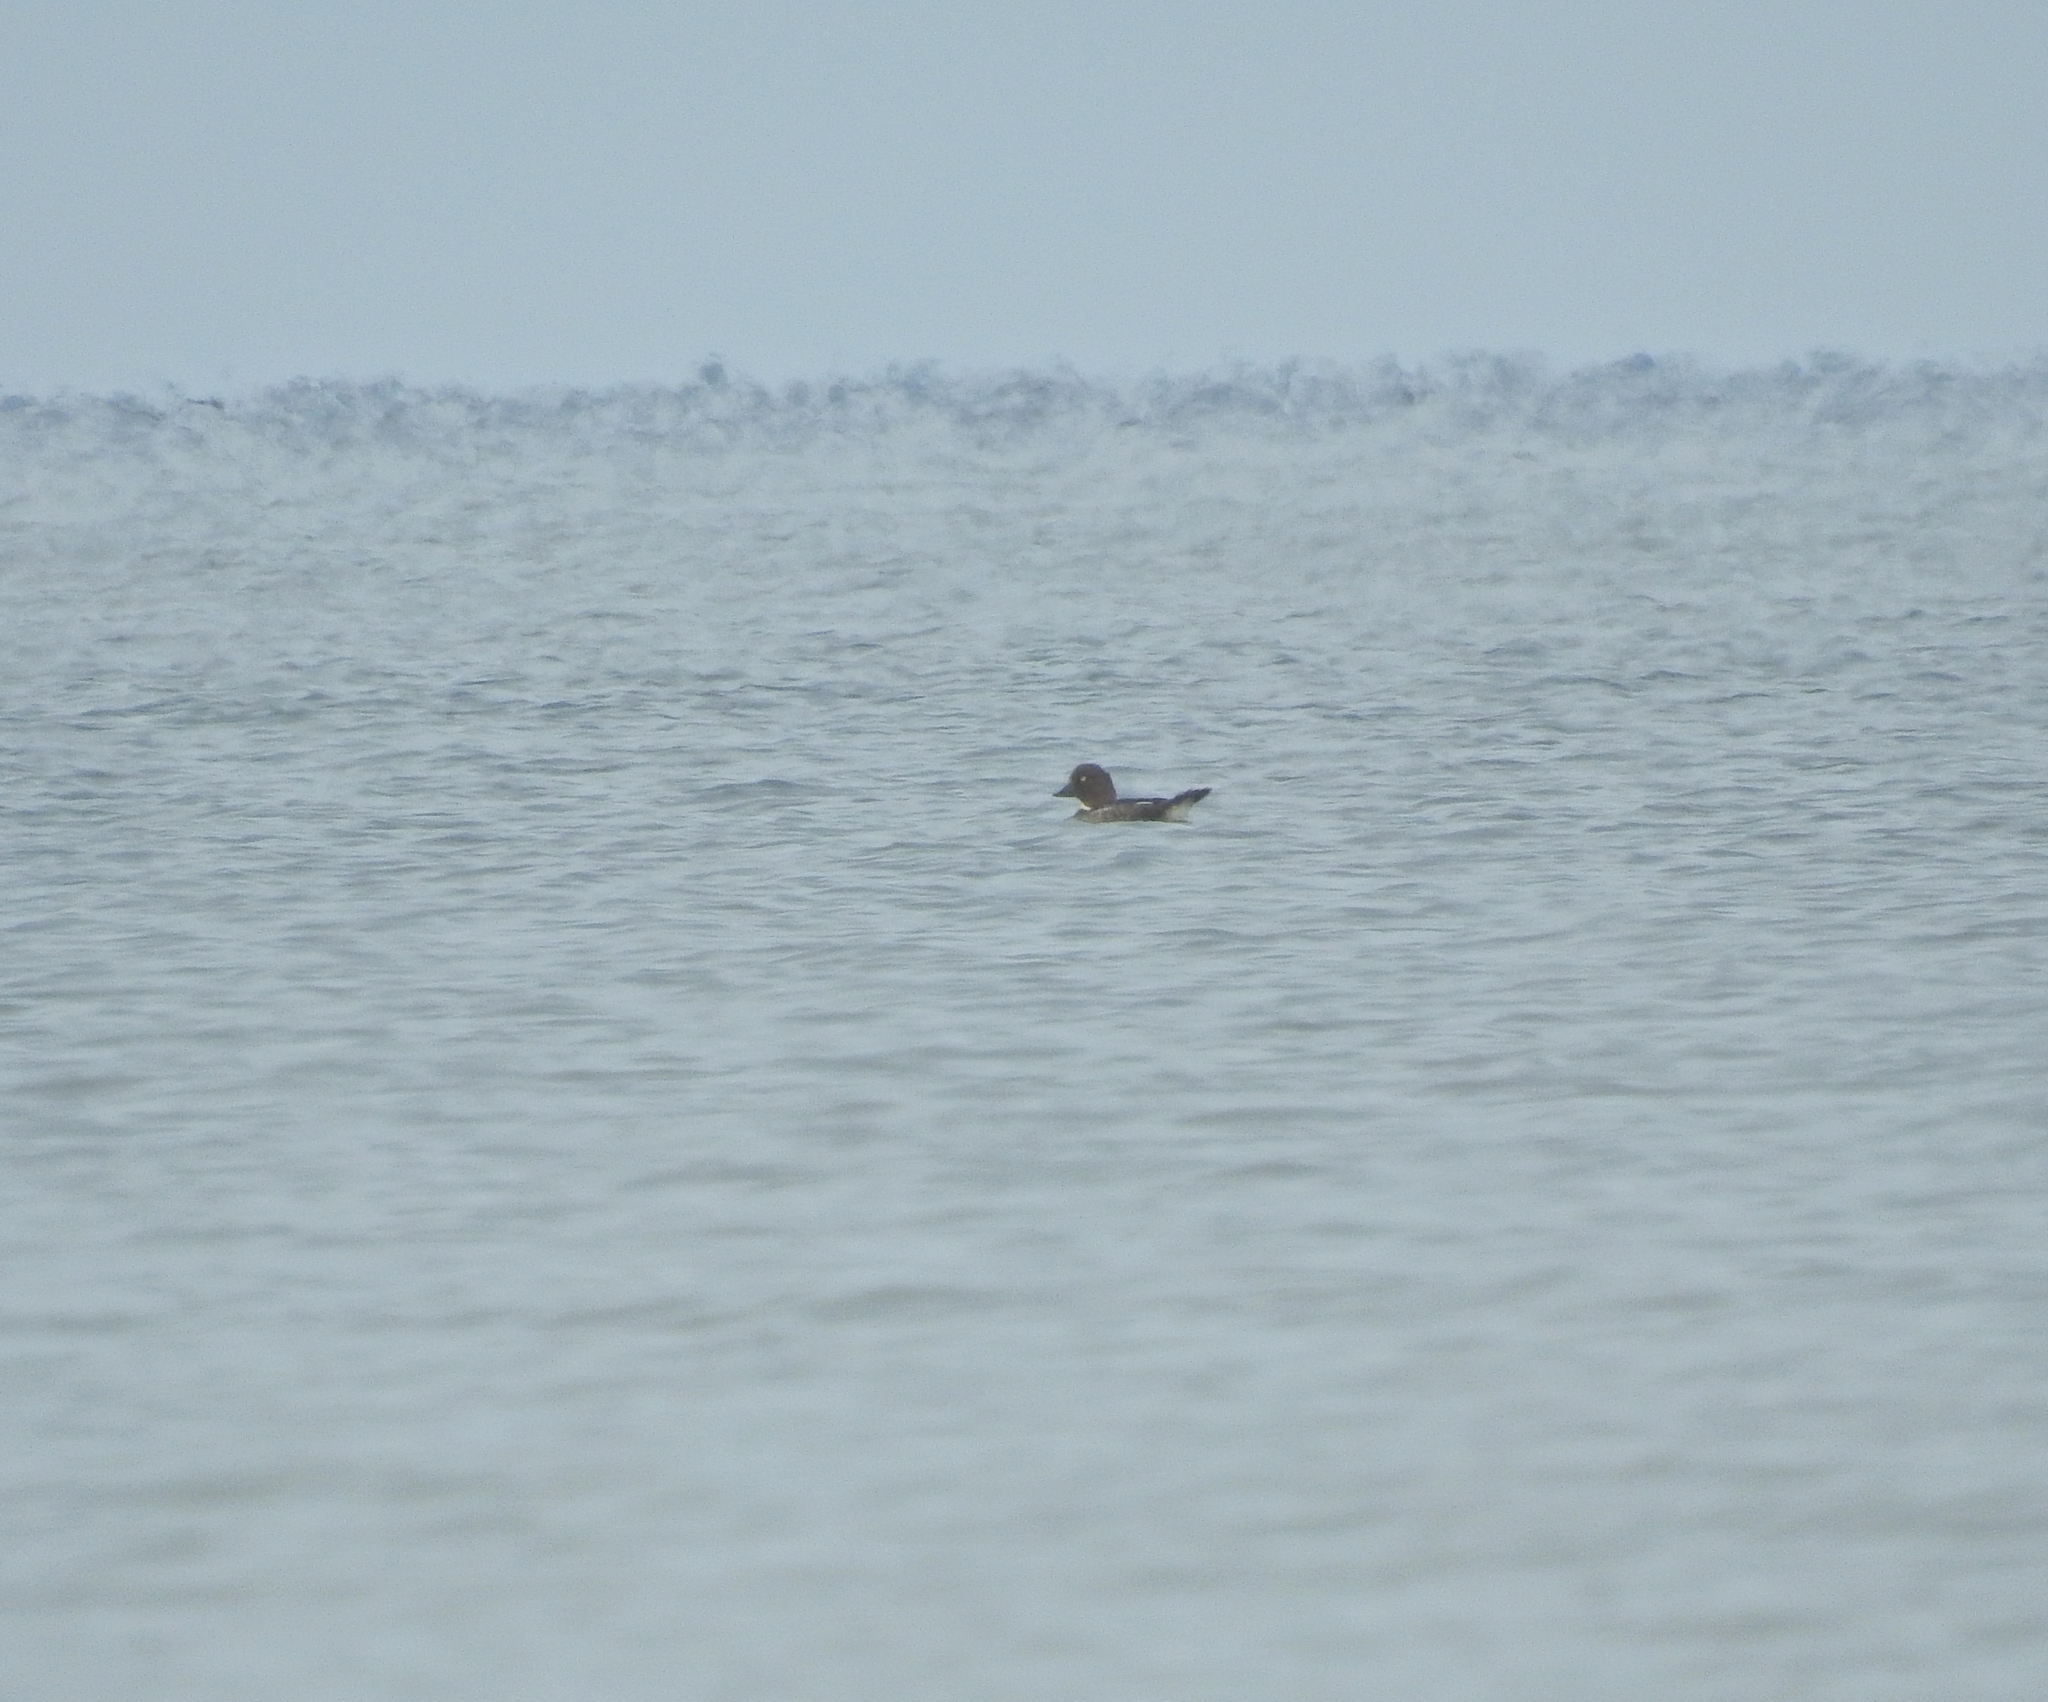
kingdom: Animalia
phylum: Chordata
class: Aves
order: Anseriformes
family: Anatidae
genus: Bucephala
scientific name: Bucephala clangula
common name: Common goldeneye
